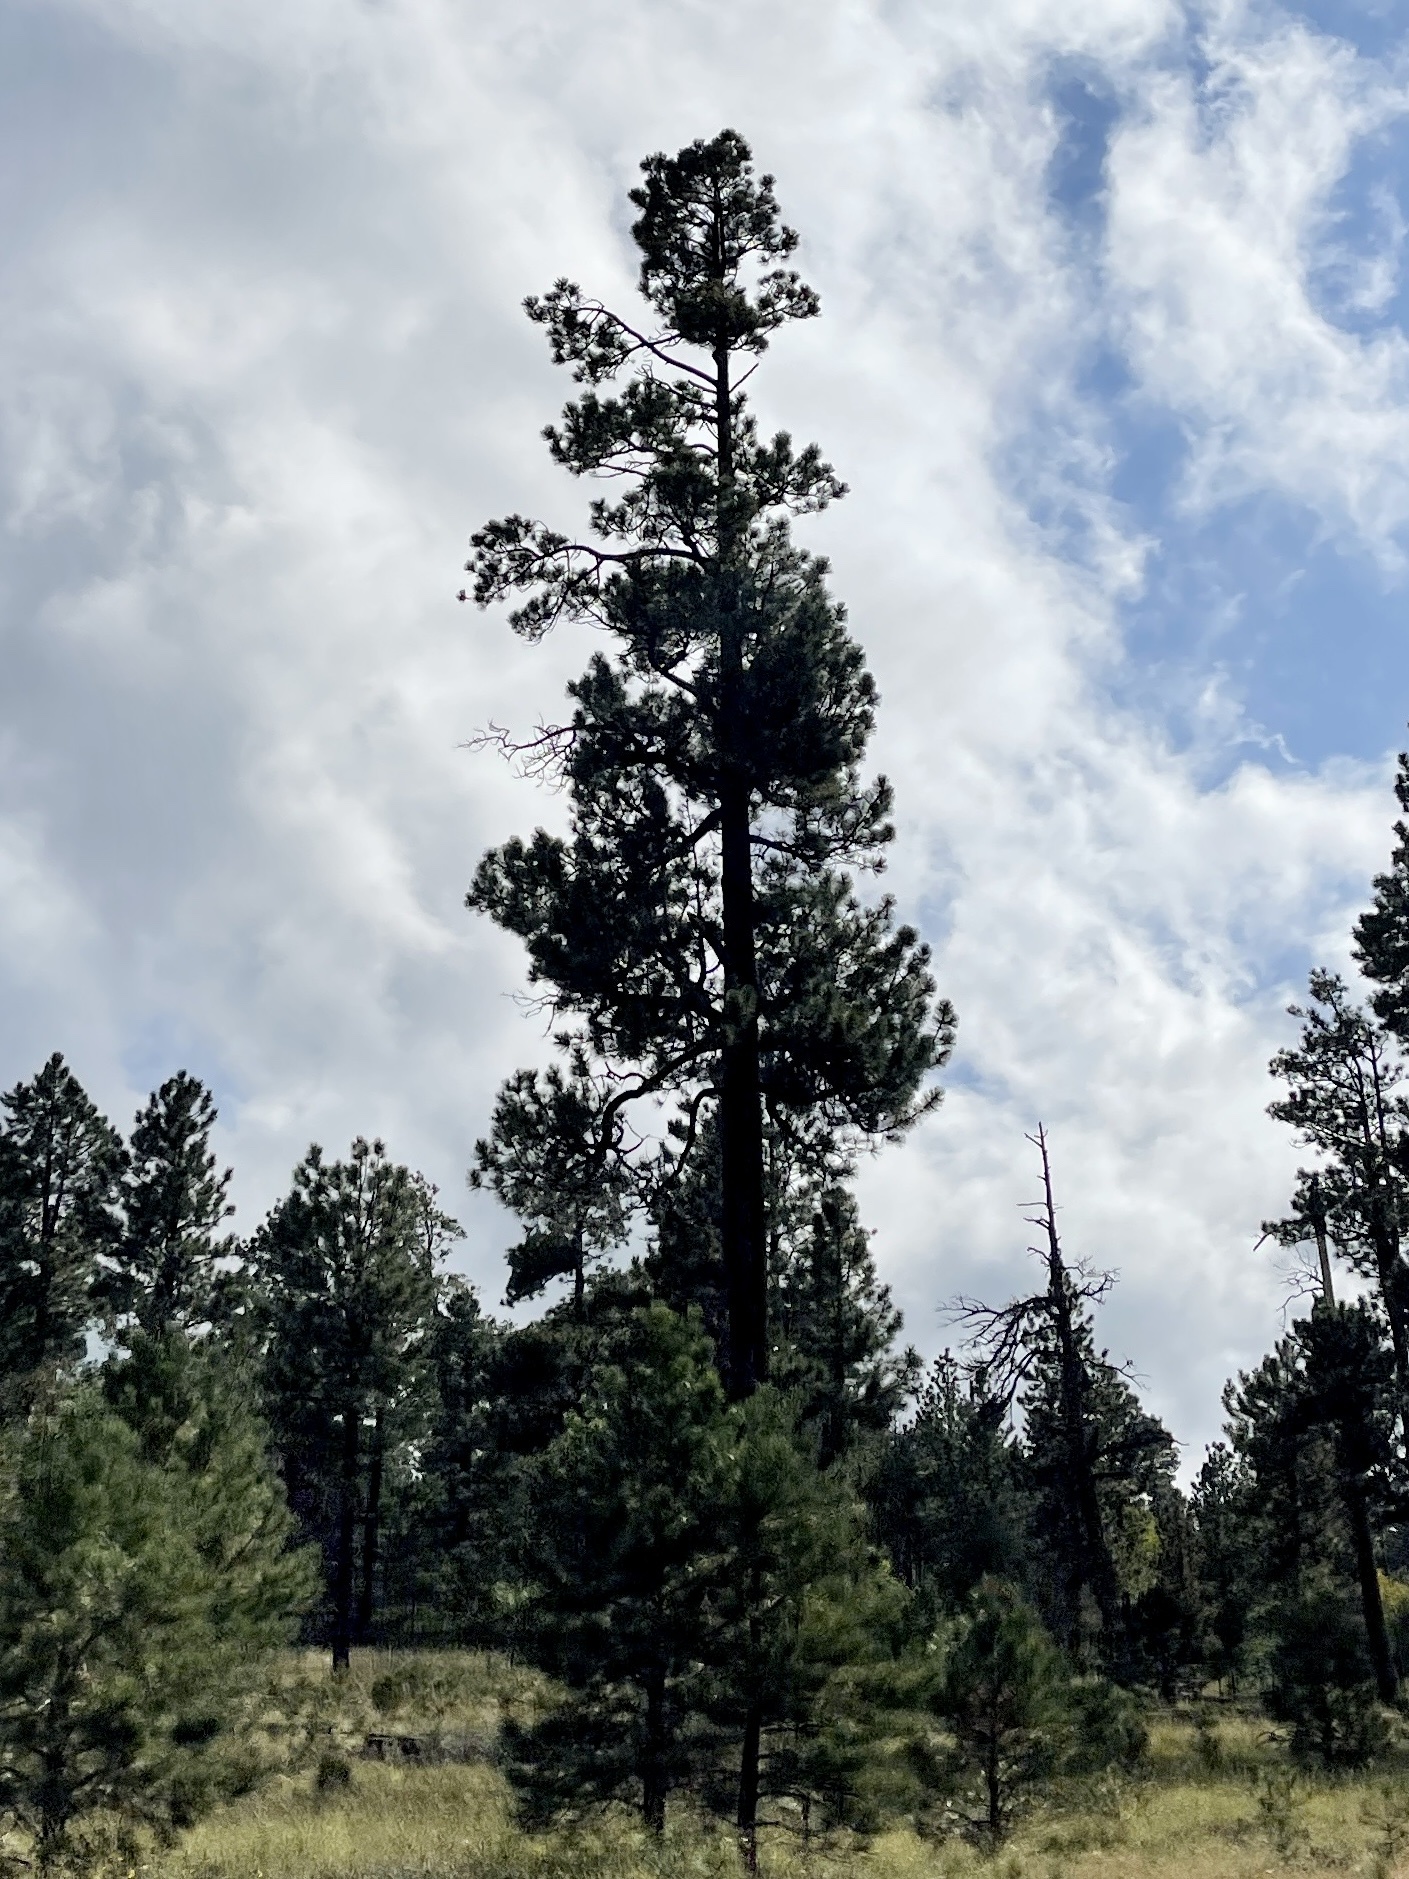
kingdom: Plantae
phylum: Tracheophyta
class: Pinopsida
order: Pinales
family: Pinaceae
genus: Pinus
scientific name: Pinus ponderosa
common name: Western yellow-pine
